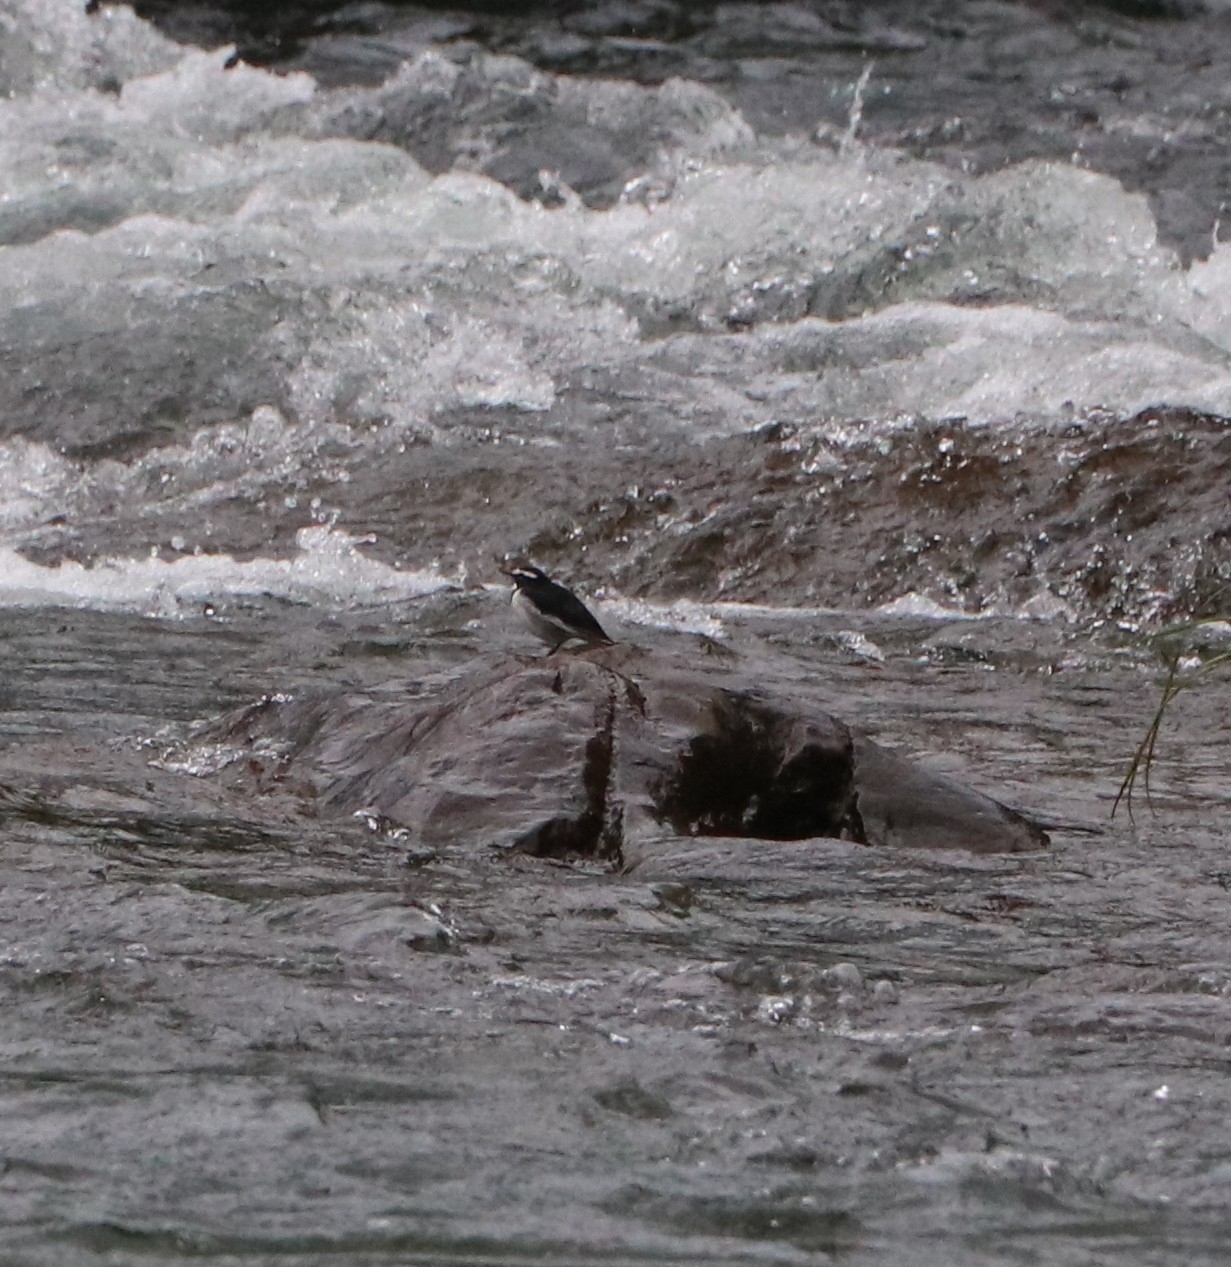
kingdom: Animalia
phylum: Chordata
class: Aves
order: Passeriformes
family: Motacillidae
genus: Motacilla
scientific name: Motacilla maderaspatensis
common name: White-browed wagtail
